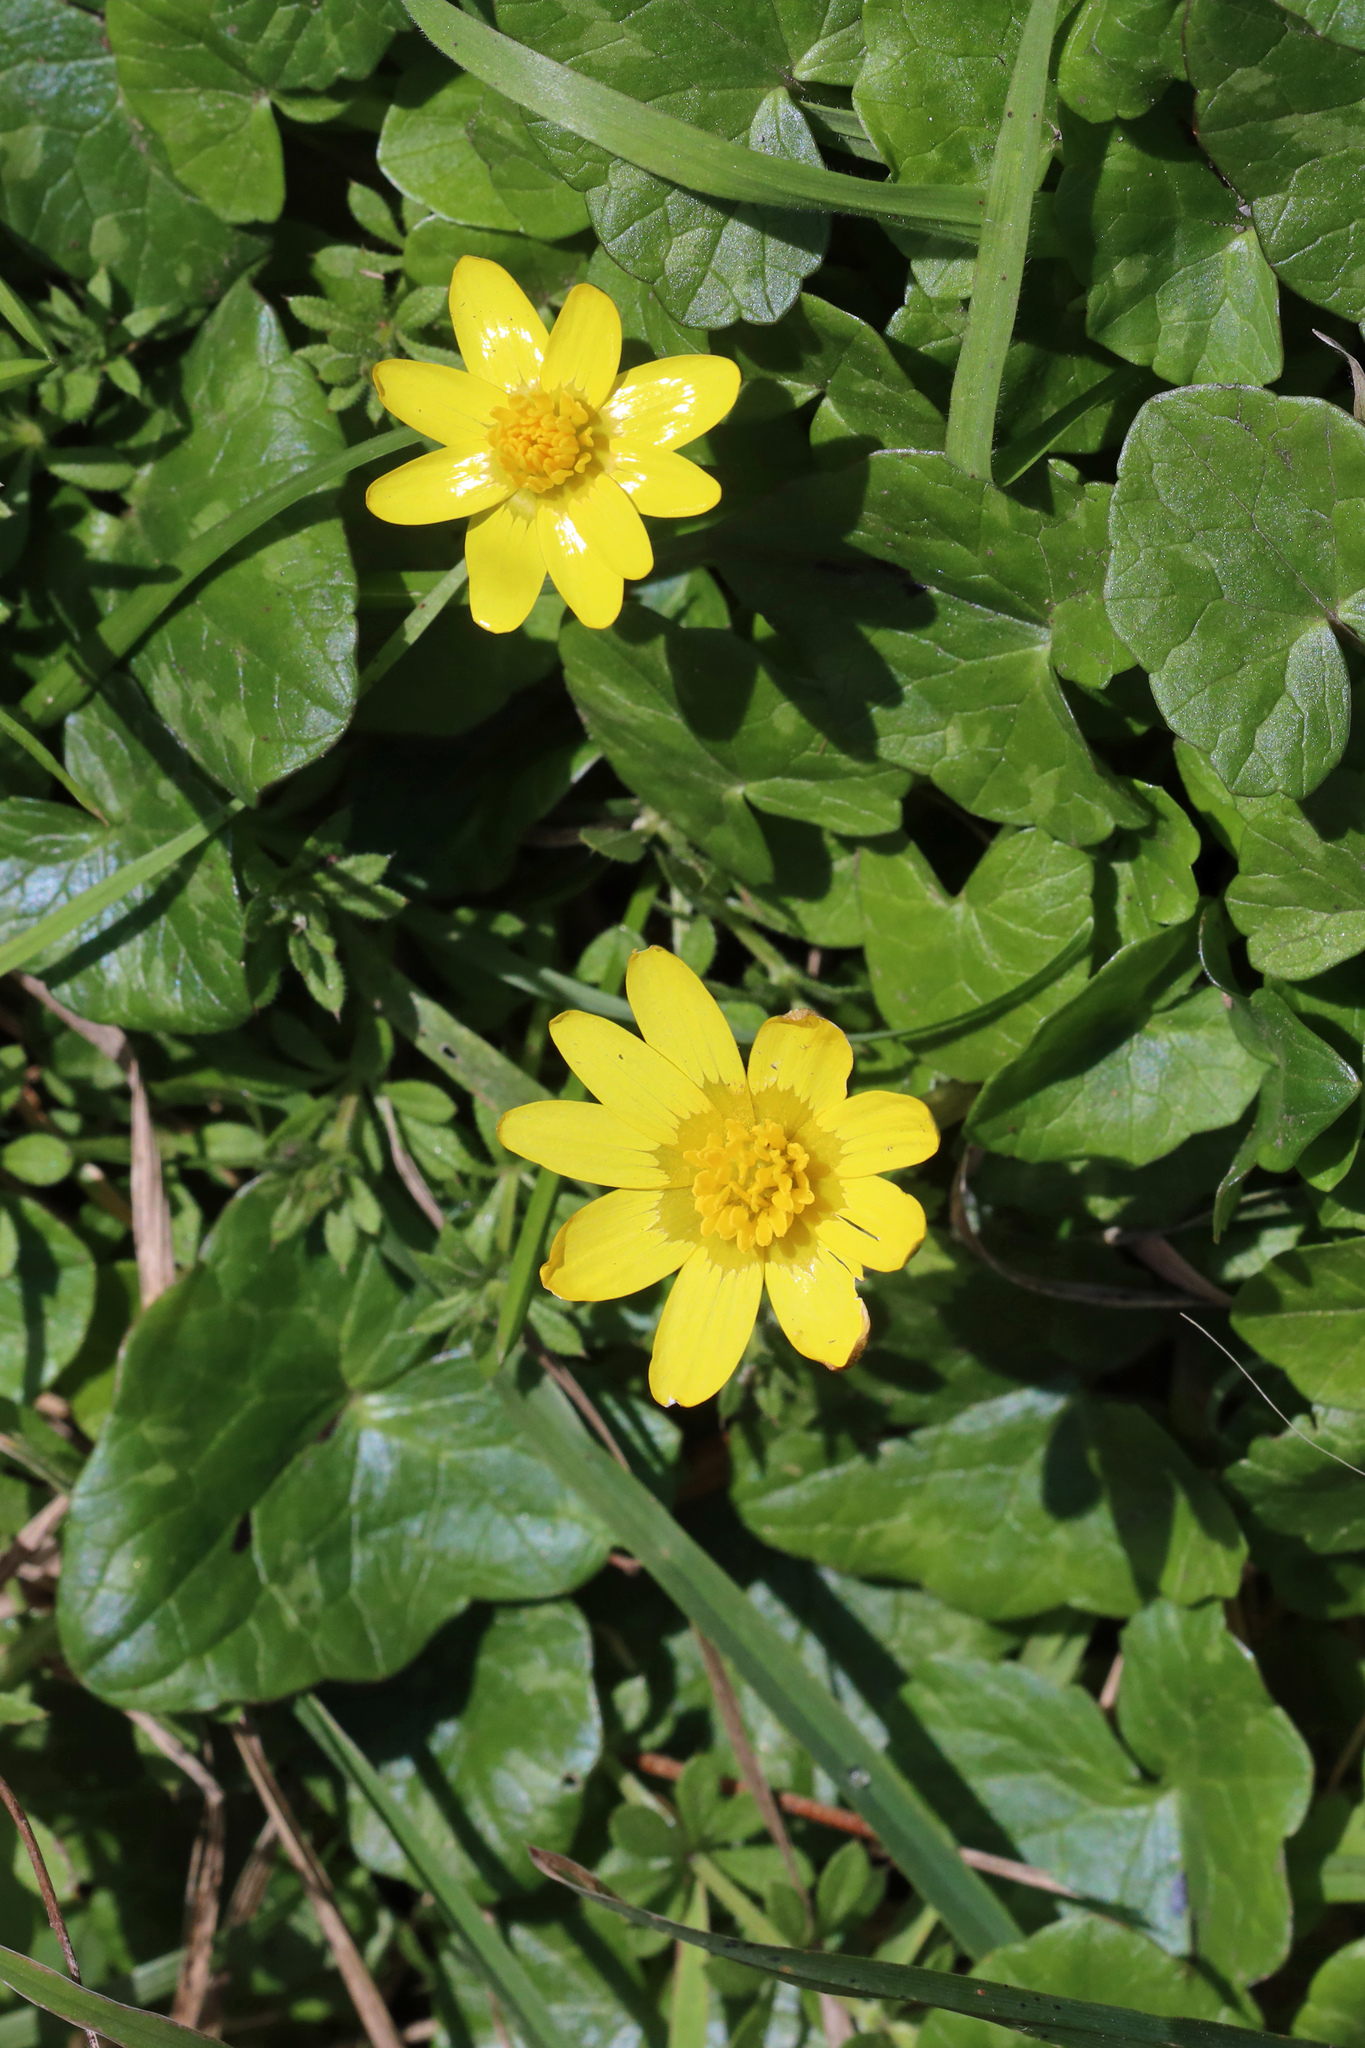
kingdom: Plantae
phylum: Tracheophyta
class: Magnoliopsida
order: Ranunculales
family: Ranunculaceae
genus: Ficaria
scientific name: Ficaria verna
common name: Lesser celandine
